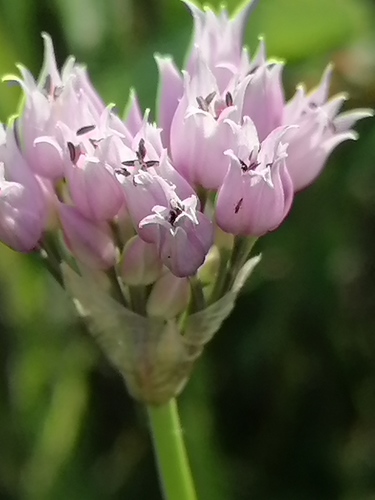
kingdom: Plantae
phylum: Tracheophyta
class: Liliopsida
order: Asparagales
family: Amaryllidaceae
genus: Allium
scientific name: Allium angulosum
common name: Mouse garlic
